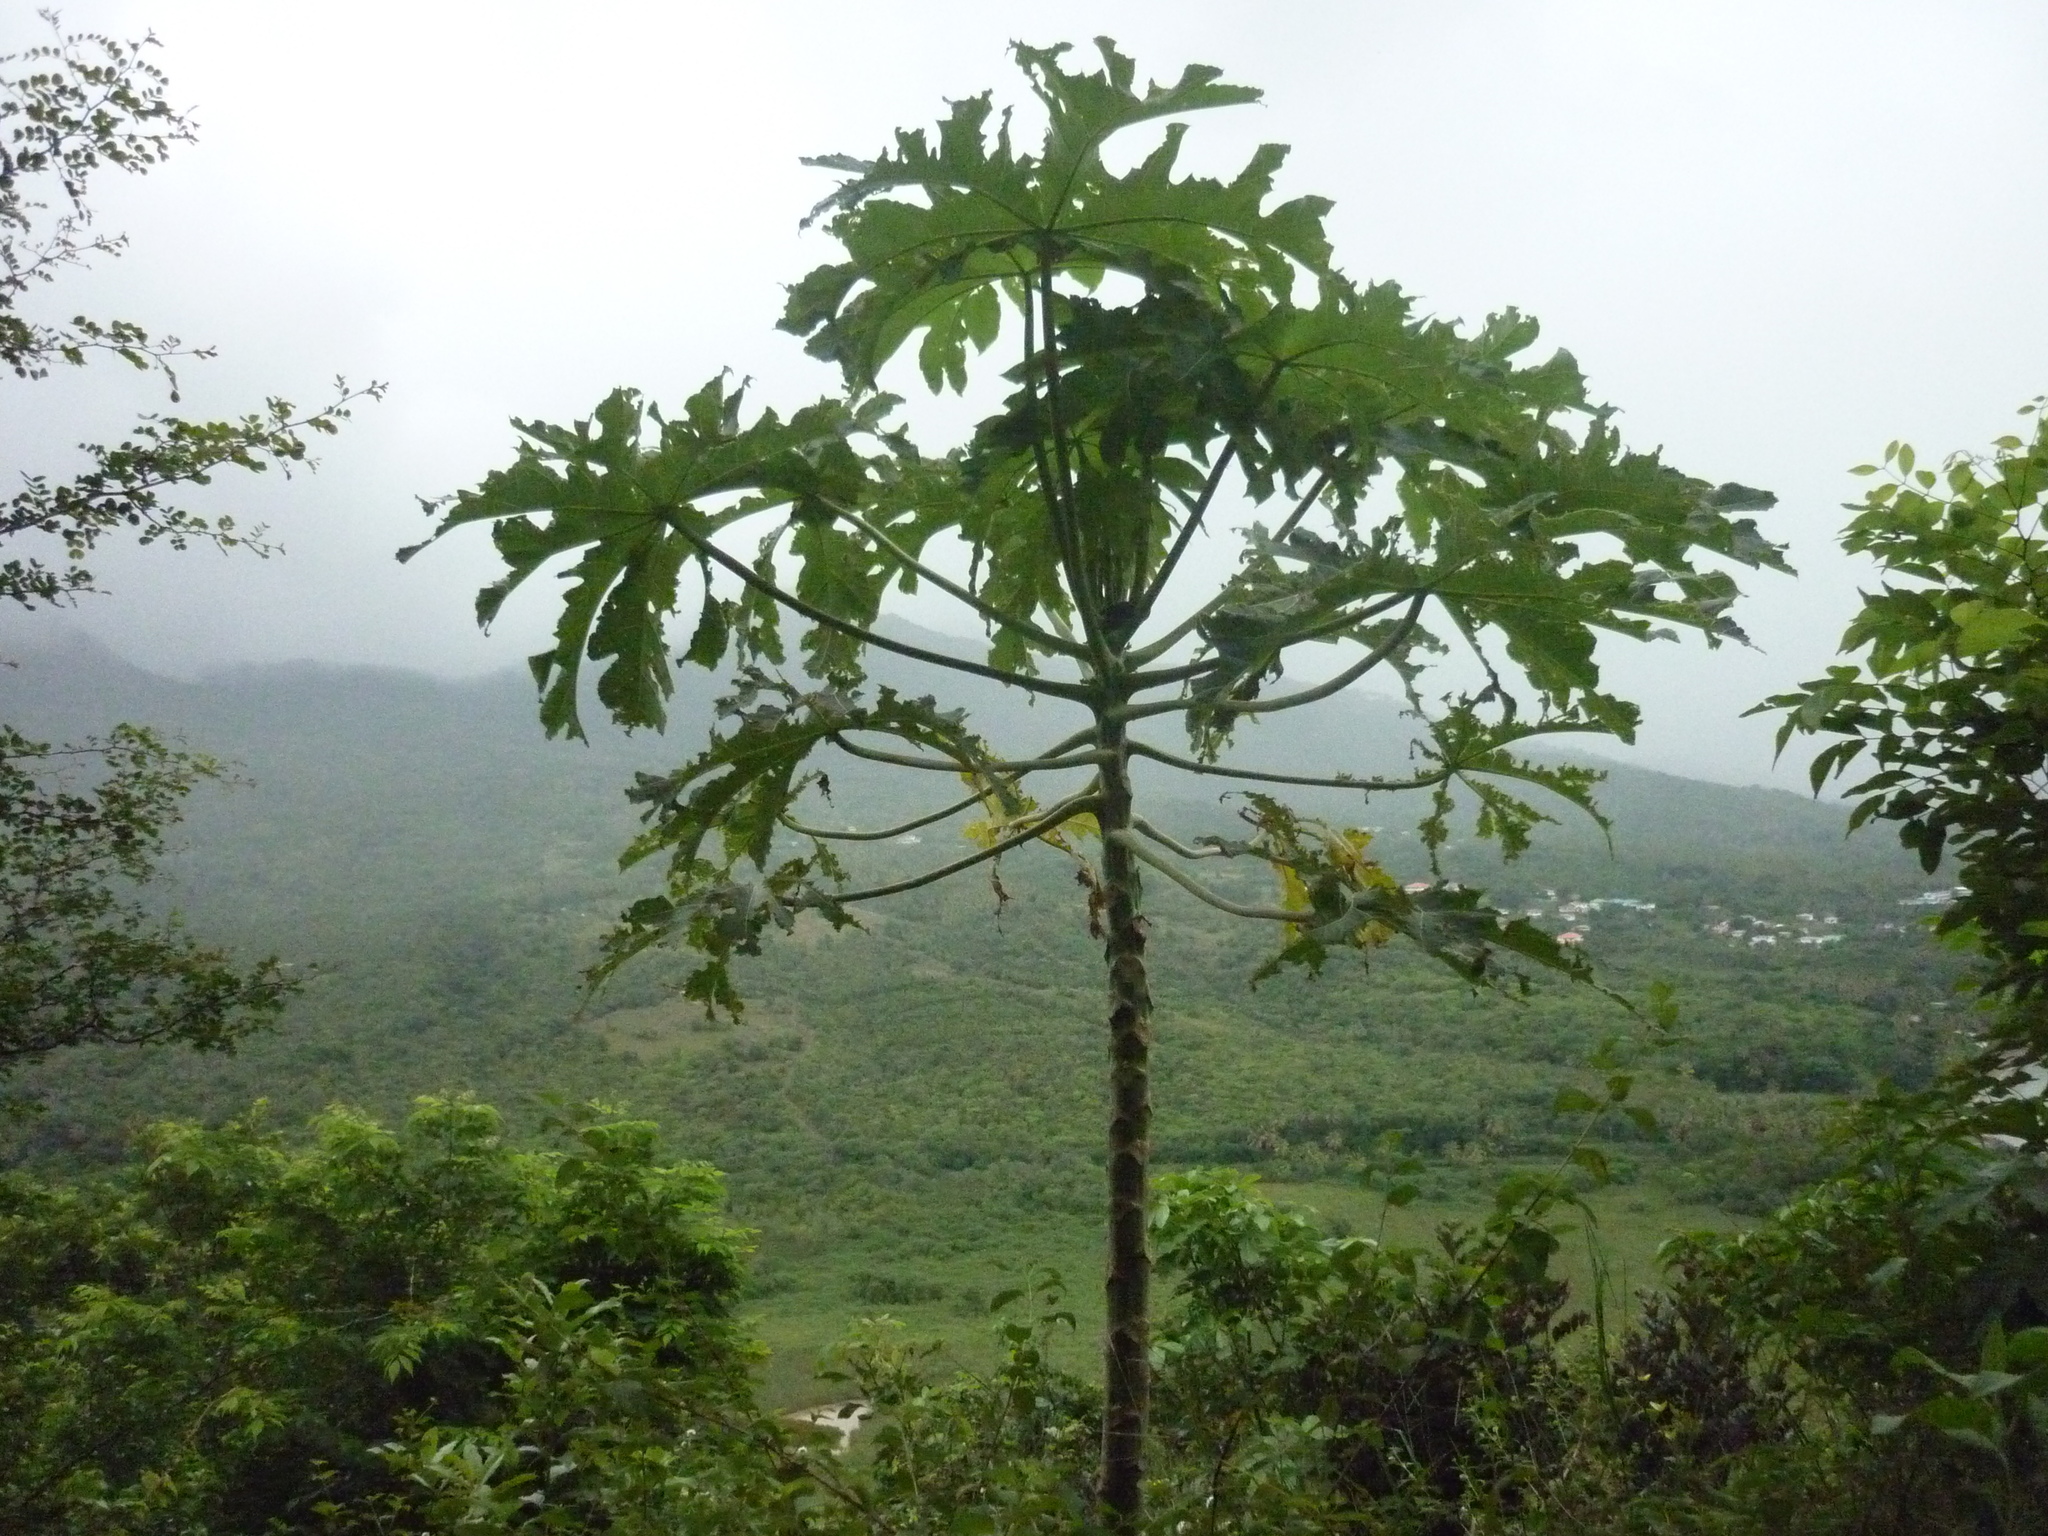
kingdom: Plantae
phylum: Tracheophyta
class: Magnoliopsida
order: Brassicales
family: Caricaceae
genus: Carica
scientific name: Carica papaya
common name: Papaya
